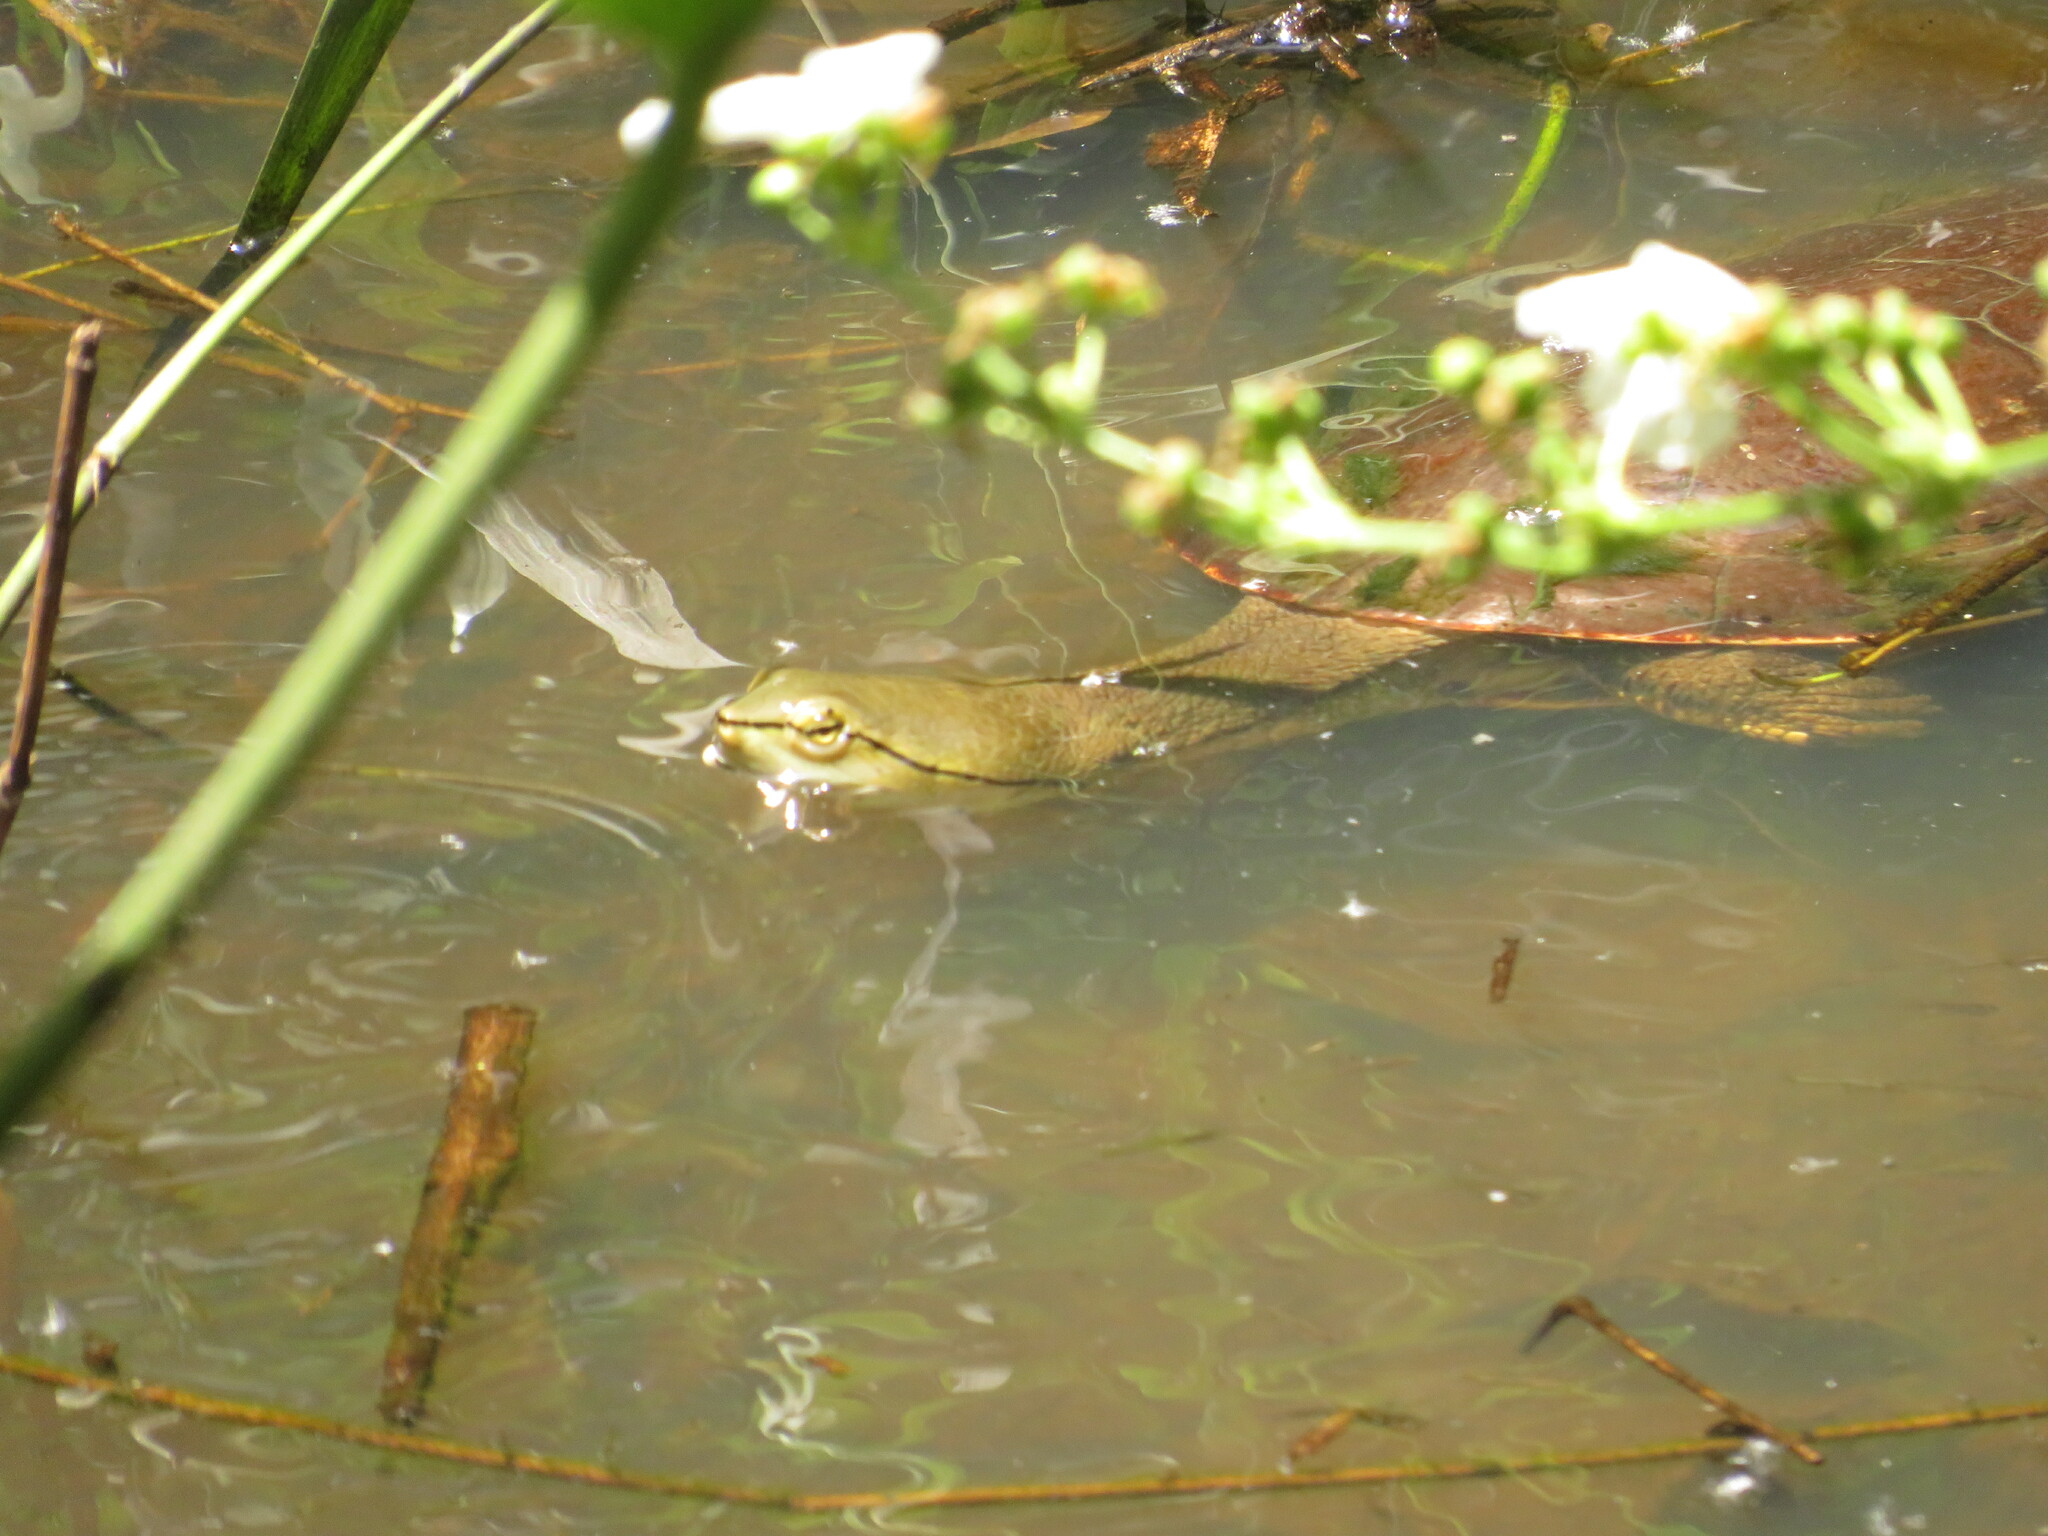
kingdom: Animalia
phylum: Chordata
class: Testudines
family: Chelidae
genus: Phrynops
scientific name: Phrynops hilarii
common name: Side-necked turtle of saint hillaire
